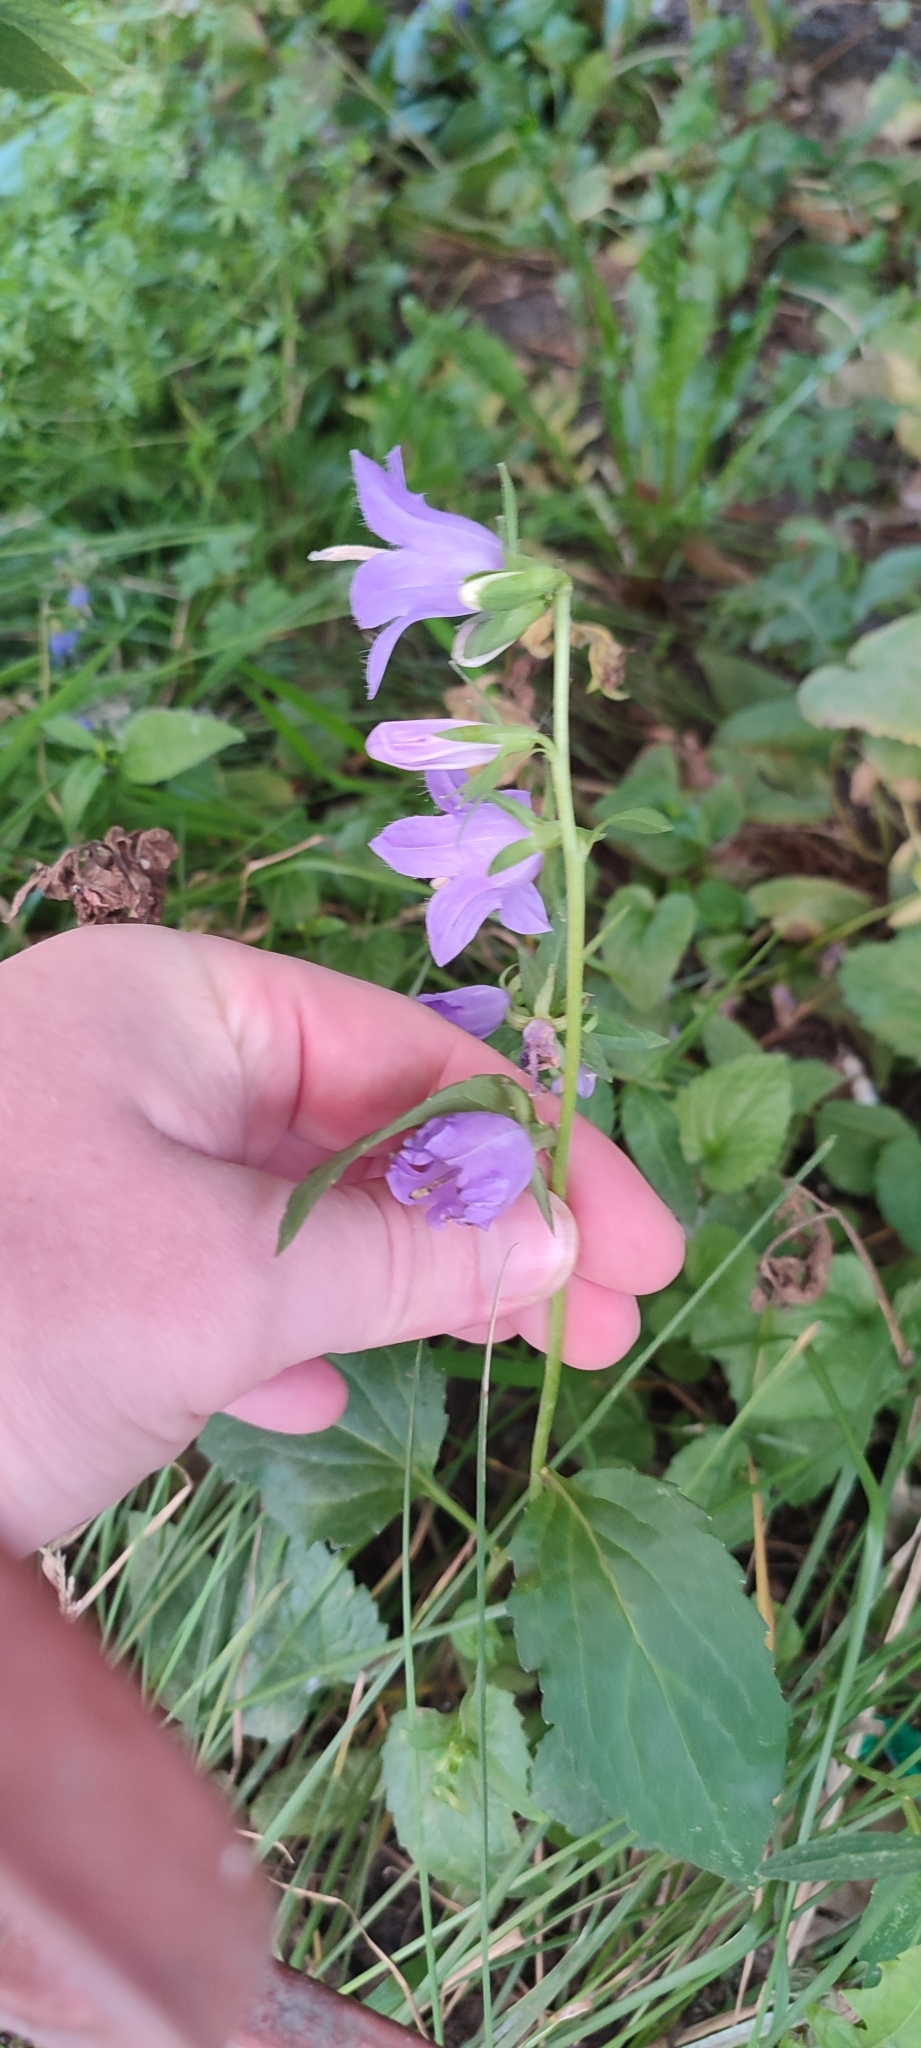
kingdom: Plantae
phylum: Tracheophyta
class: Magnoliopsida
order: Asterales
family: Campanulaceae
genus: Campanula
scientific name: Campanula rapunculoides
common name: Creeping bellflower
